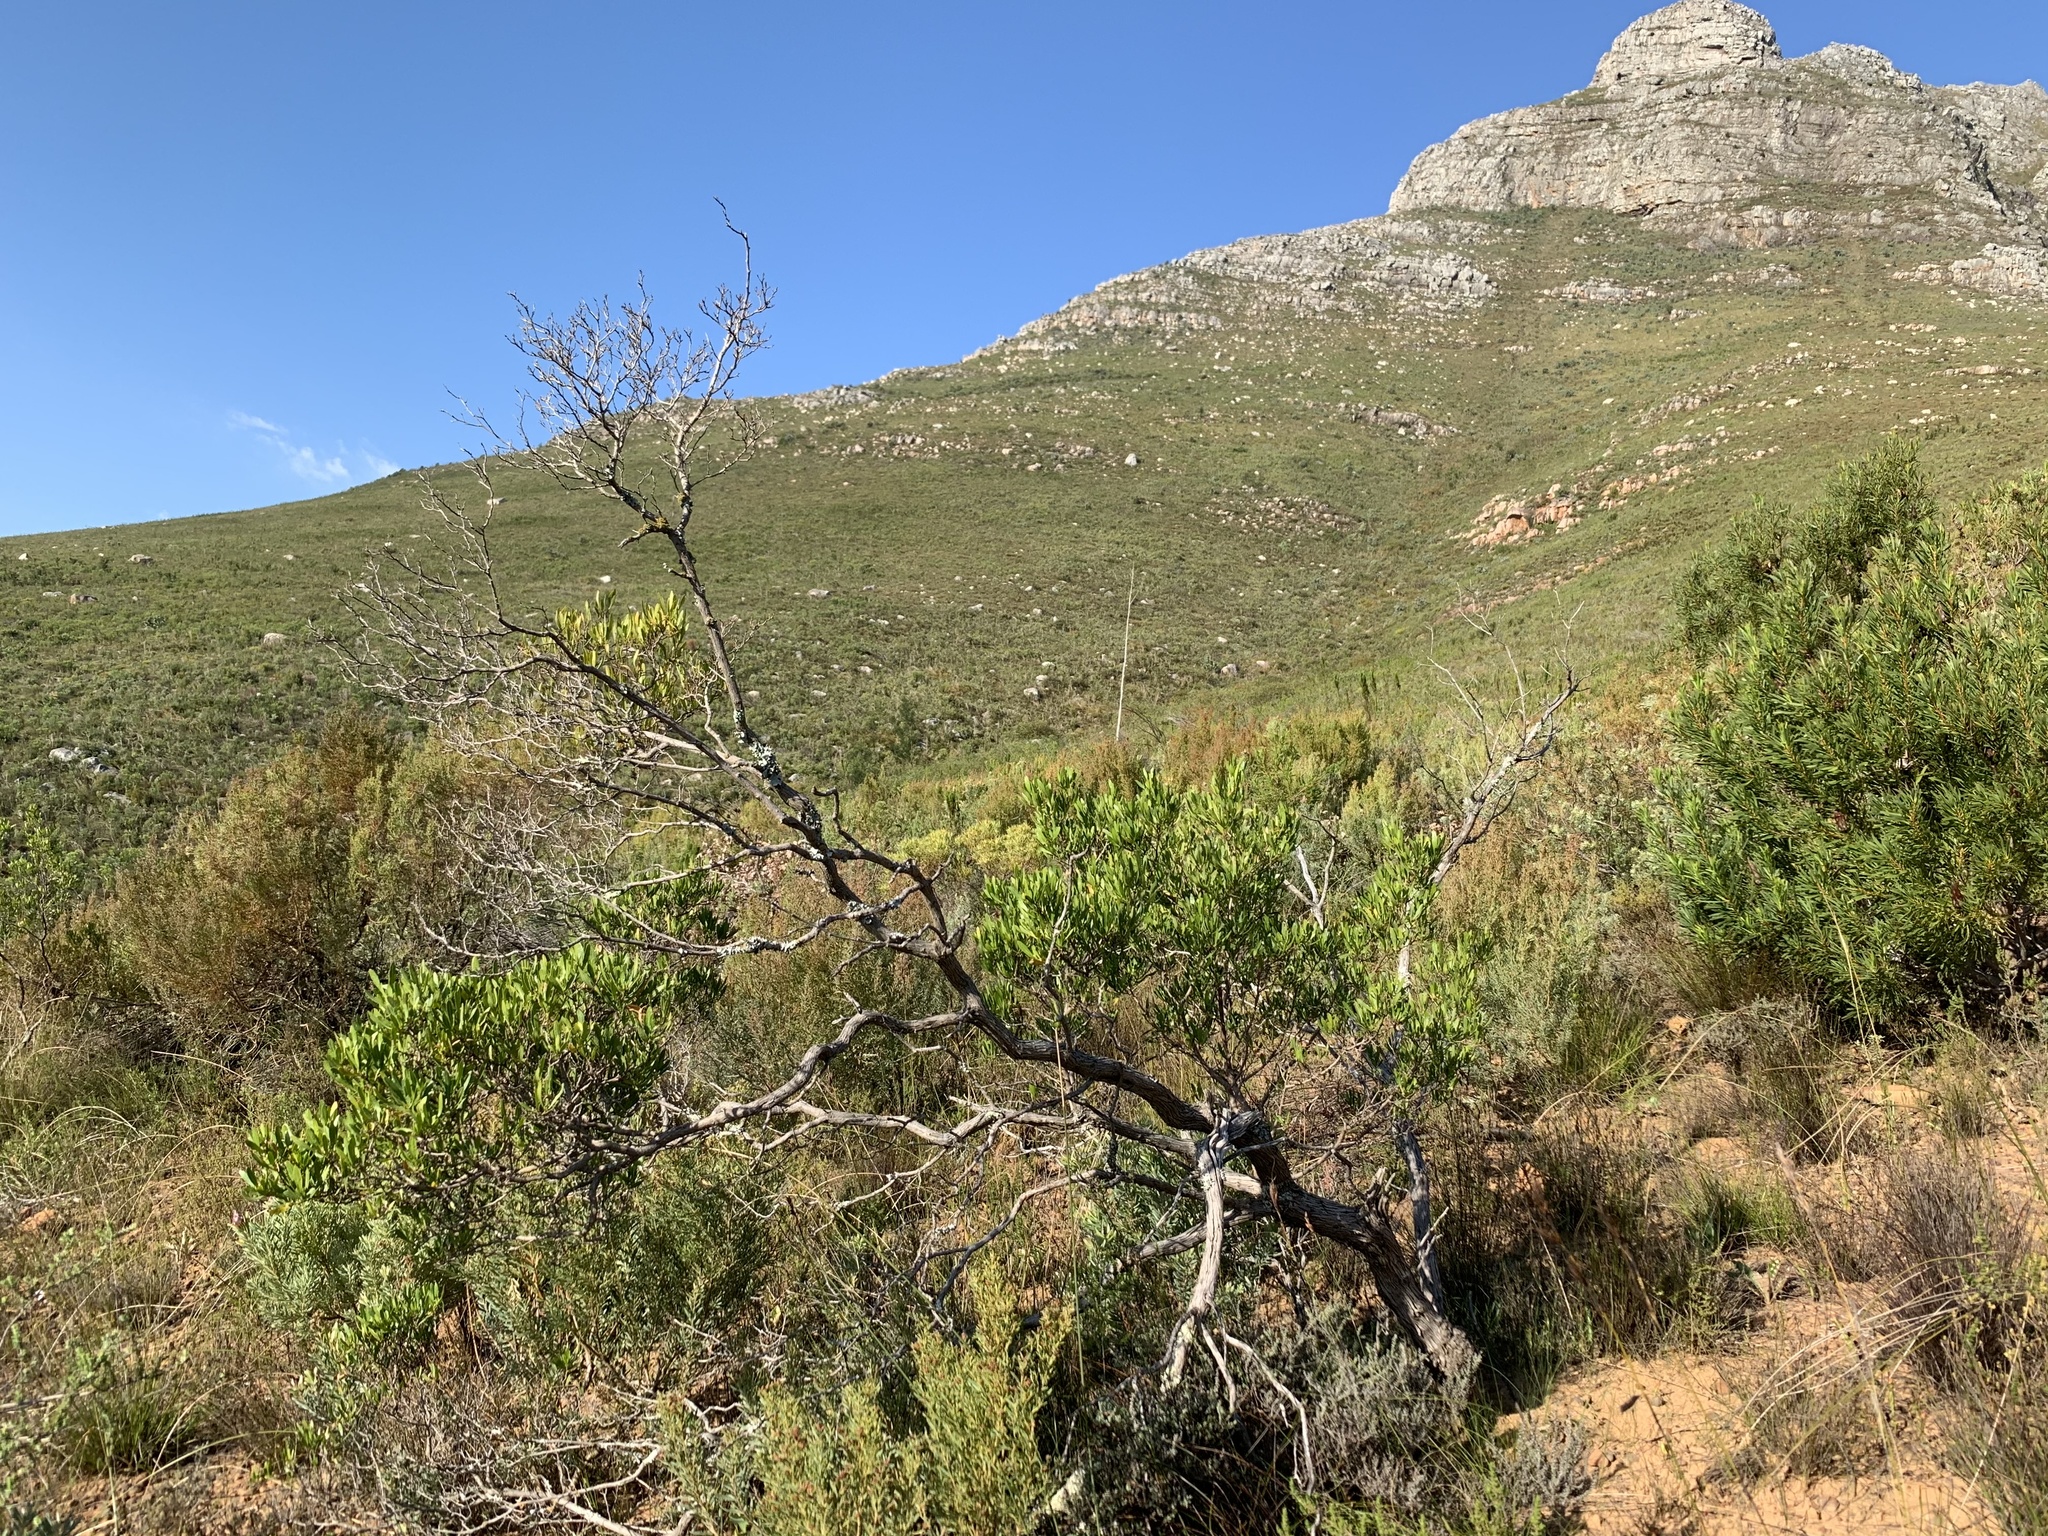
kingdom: Plantae
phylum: Tracheophyta
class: Magnoliopsida
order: Sapindales
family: Sapindaceae
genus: Dodonaea
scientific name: Dodonaea viscosa
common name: Hopbush
